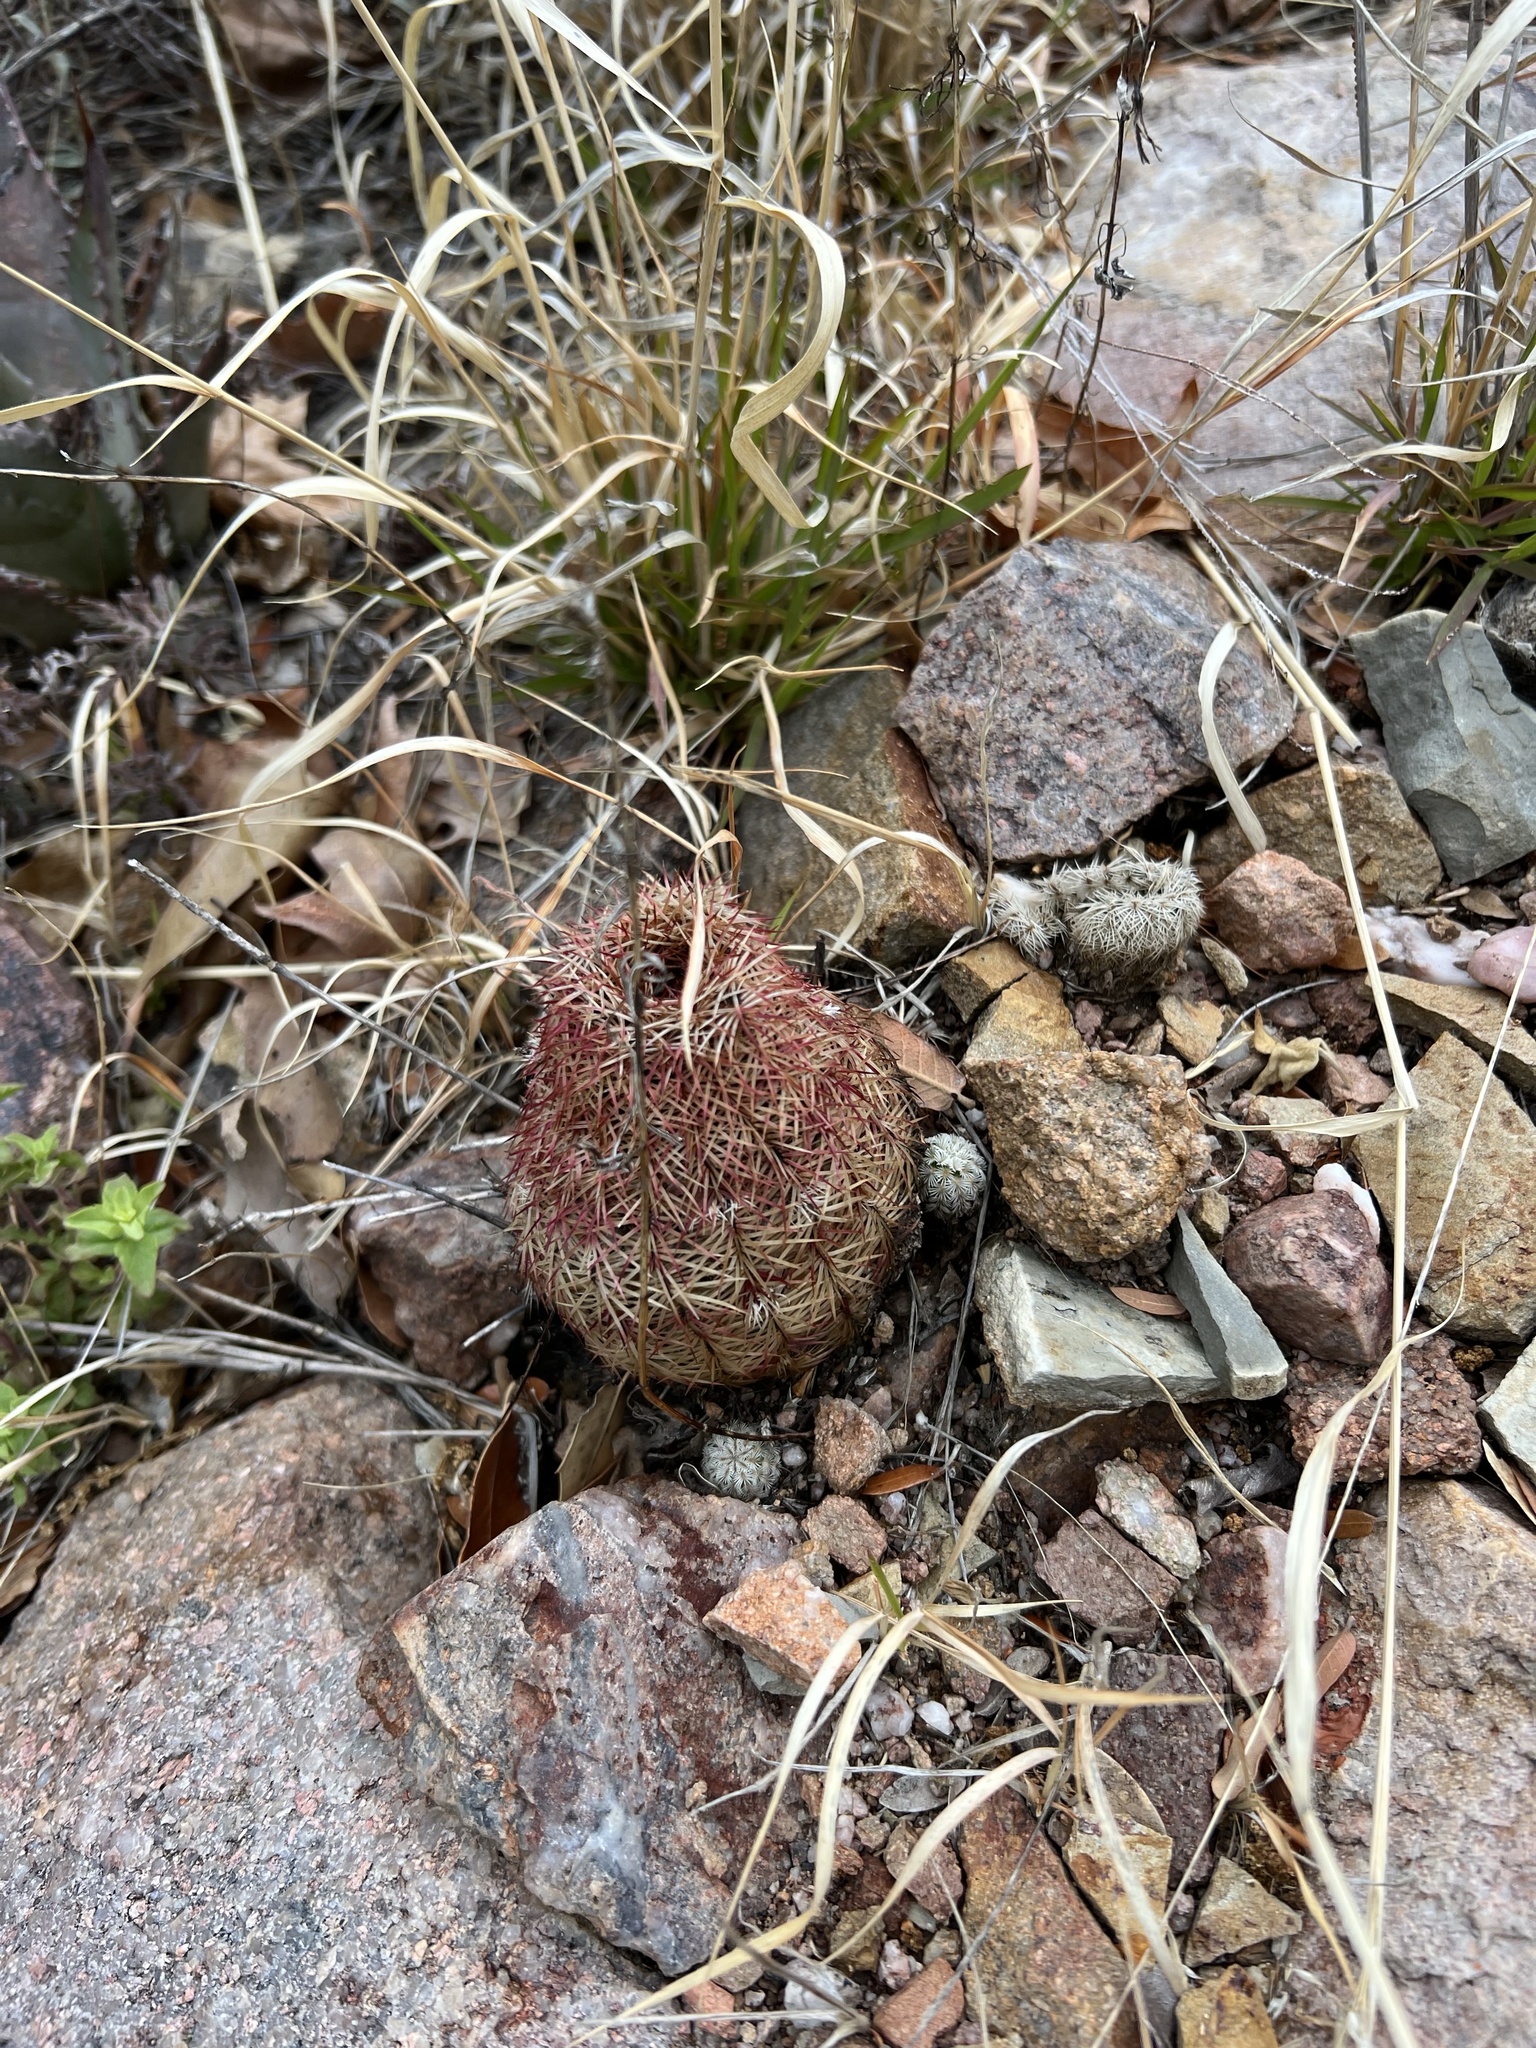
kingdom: Plantae
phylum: Tracheophyta
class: Magnoliopsida
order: Caryophyllales
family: Cactaceae
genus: Echinocereus
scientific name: Echinocereus rigidissimus
